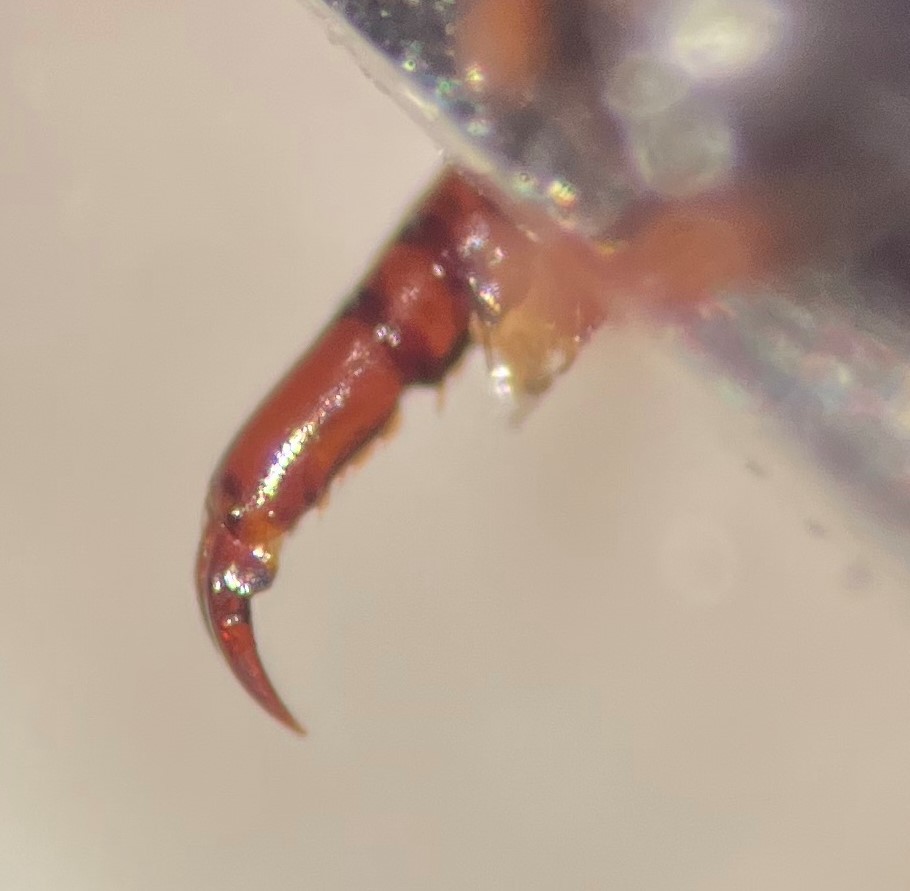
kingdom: Animalia
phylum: Arthropoda
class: Insecta
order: Coleoptera
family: Dytiscidae
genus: Platambus
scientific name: Platambus stagninus
